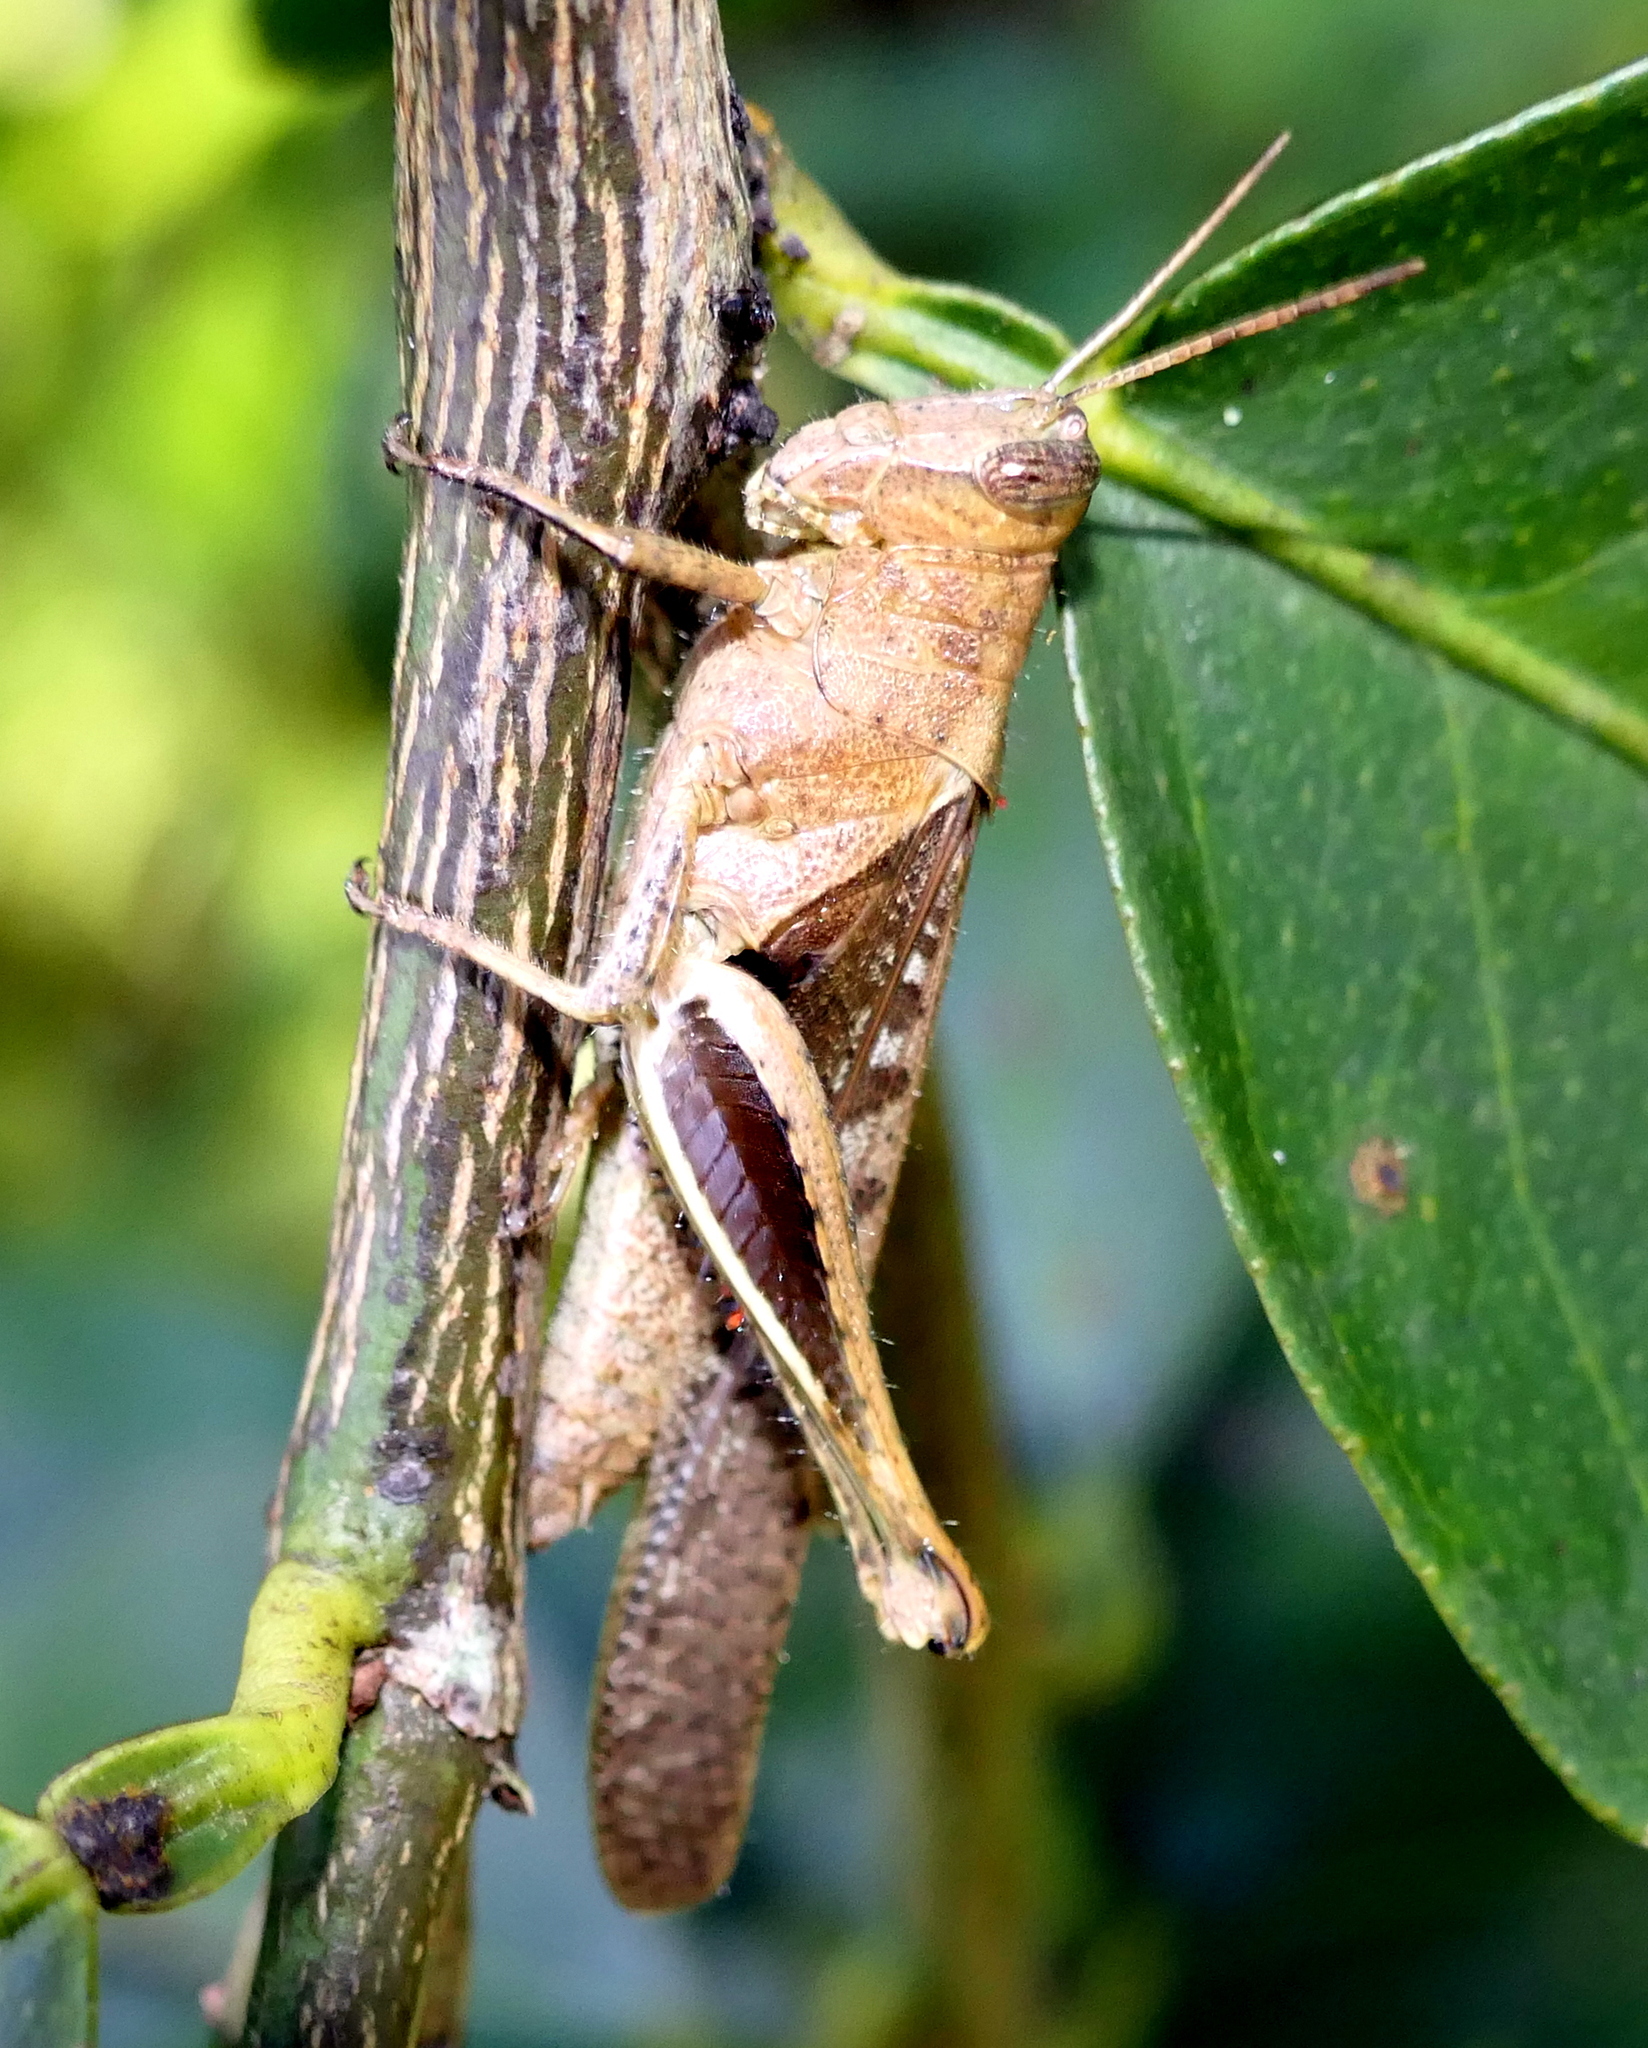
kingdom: Animalia
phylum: Arthropoda
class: Insecta
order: Orthoptera
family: Acrididae
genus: Abracris
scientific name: Abracris flavolineata
